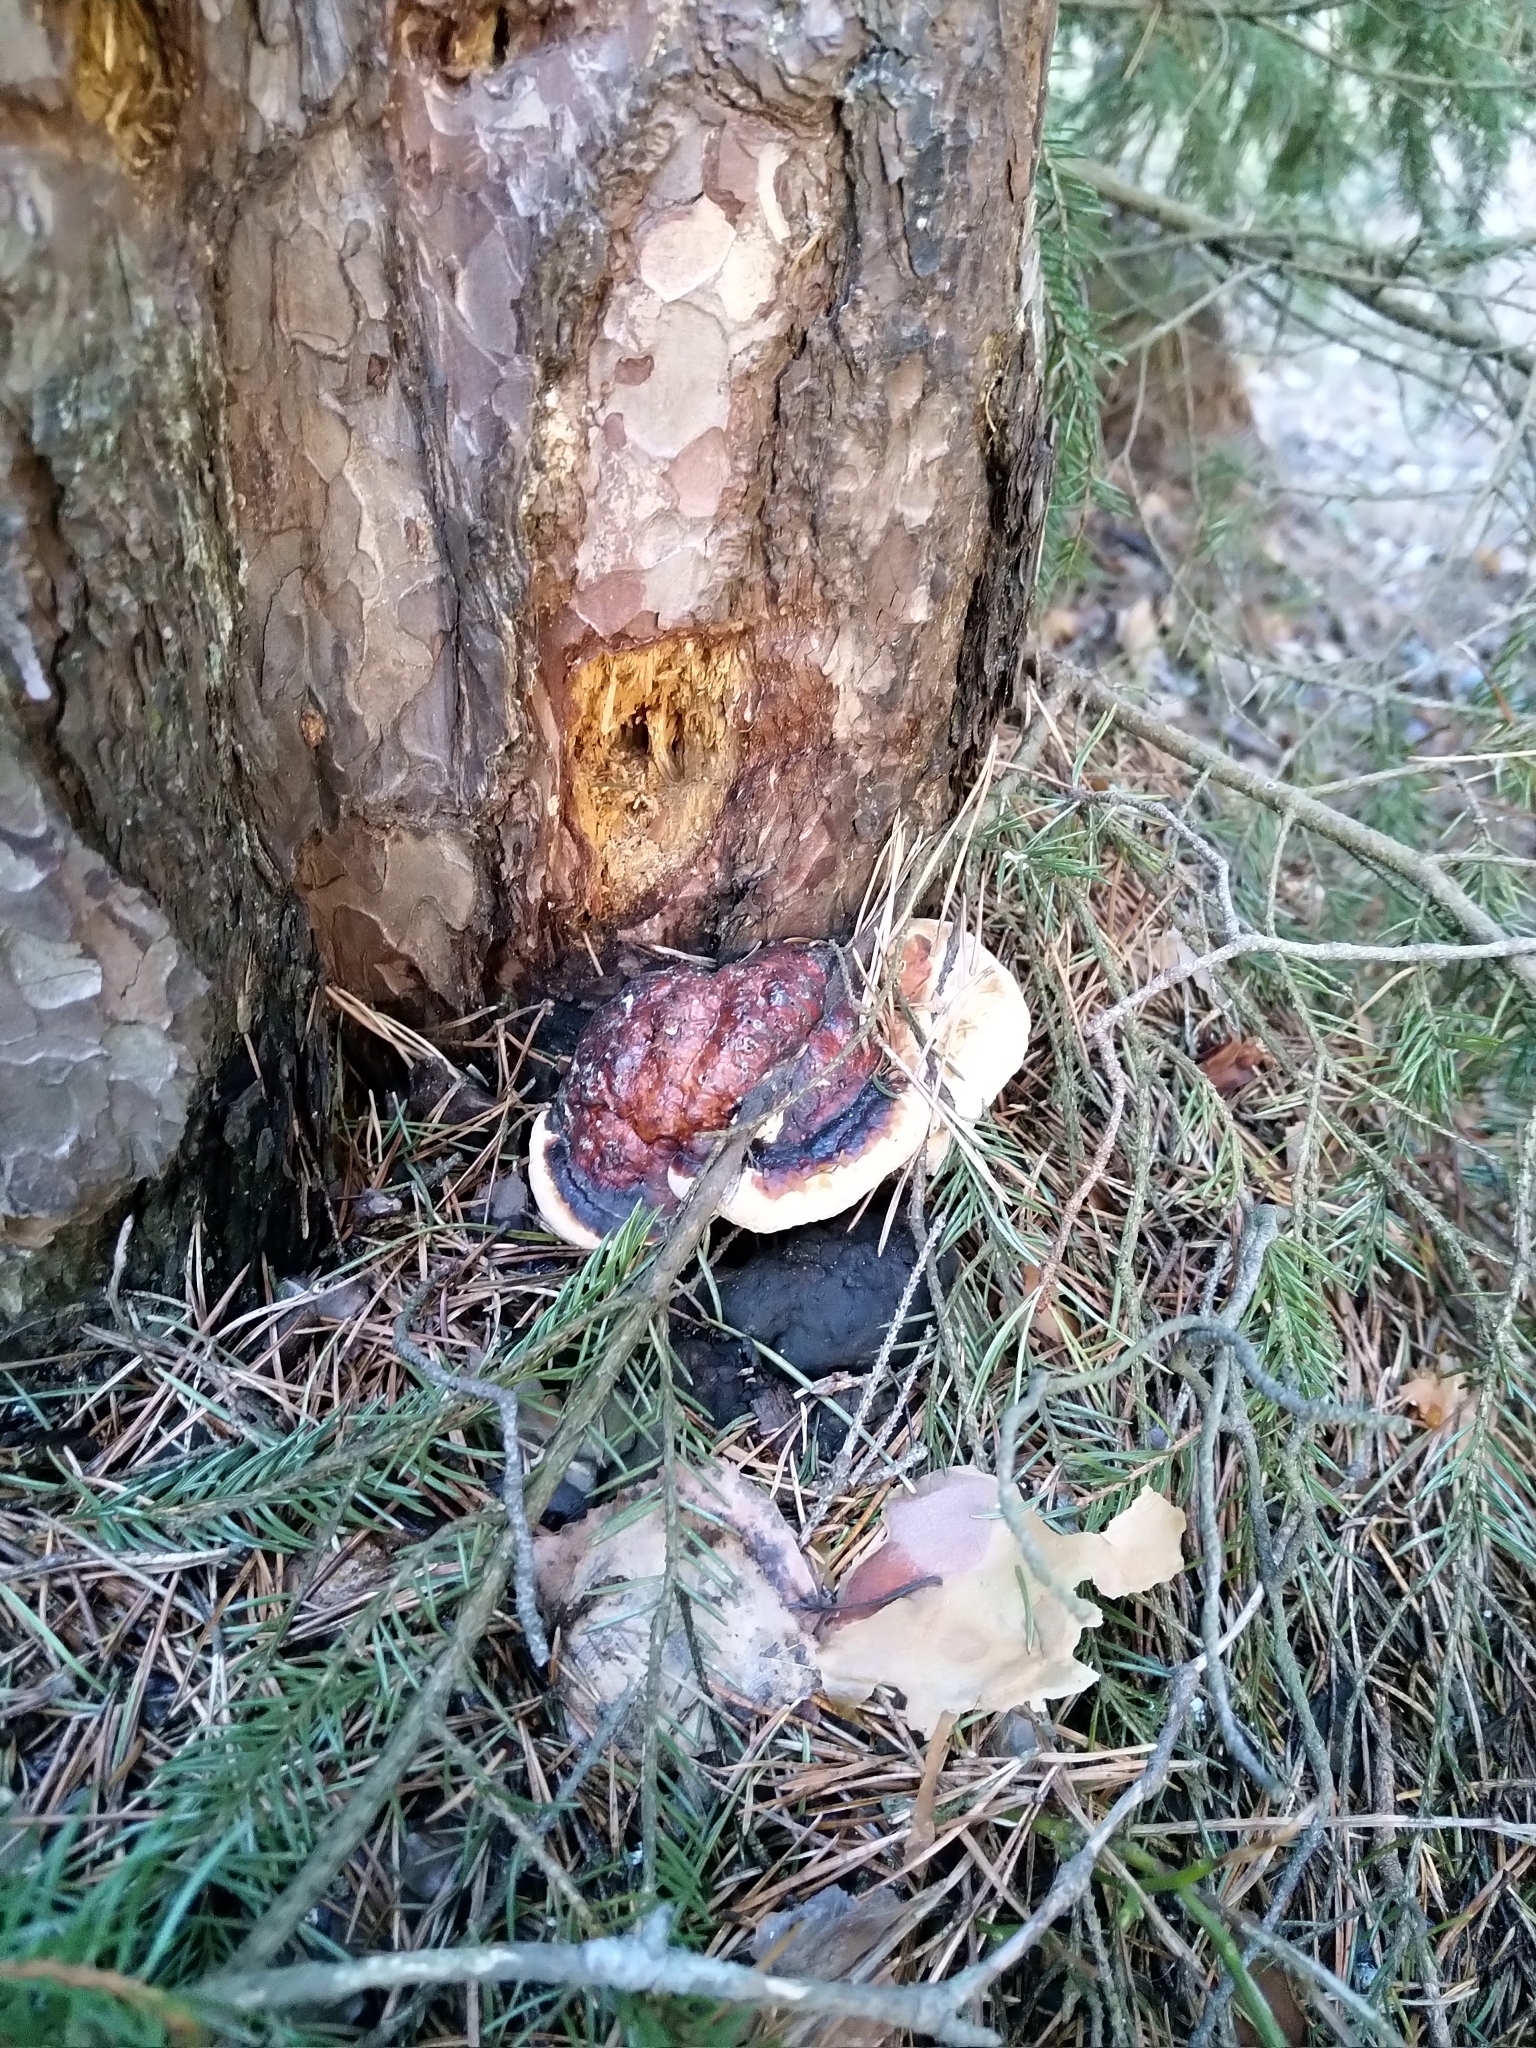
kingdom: Fungi
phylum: Basidiomycota
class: Agaricomycetes
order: Polyporales
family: Fomitopsidaceae
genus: Fomitopsis
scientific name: Fomitopsis pinicola
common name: Red-belted bracket
